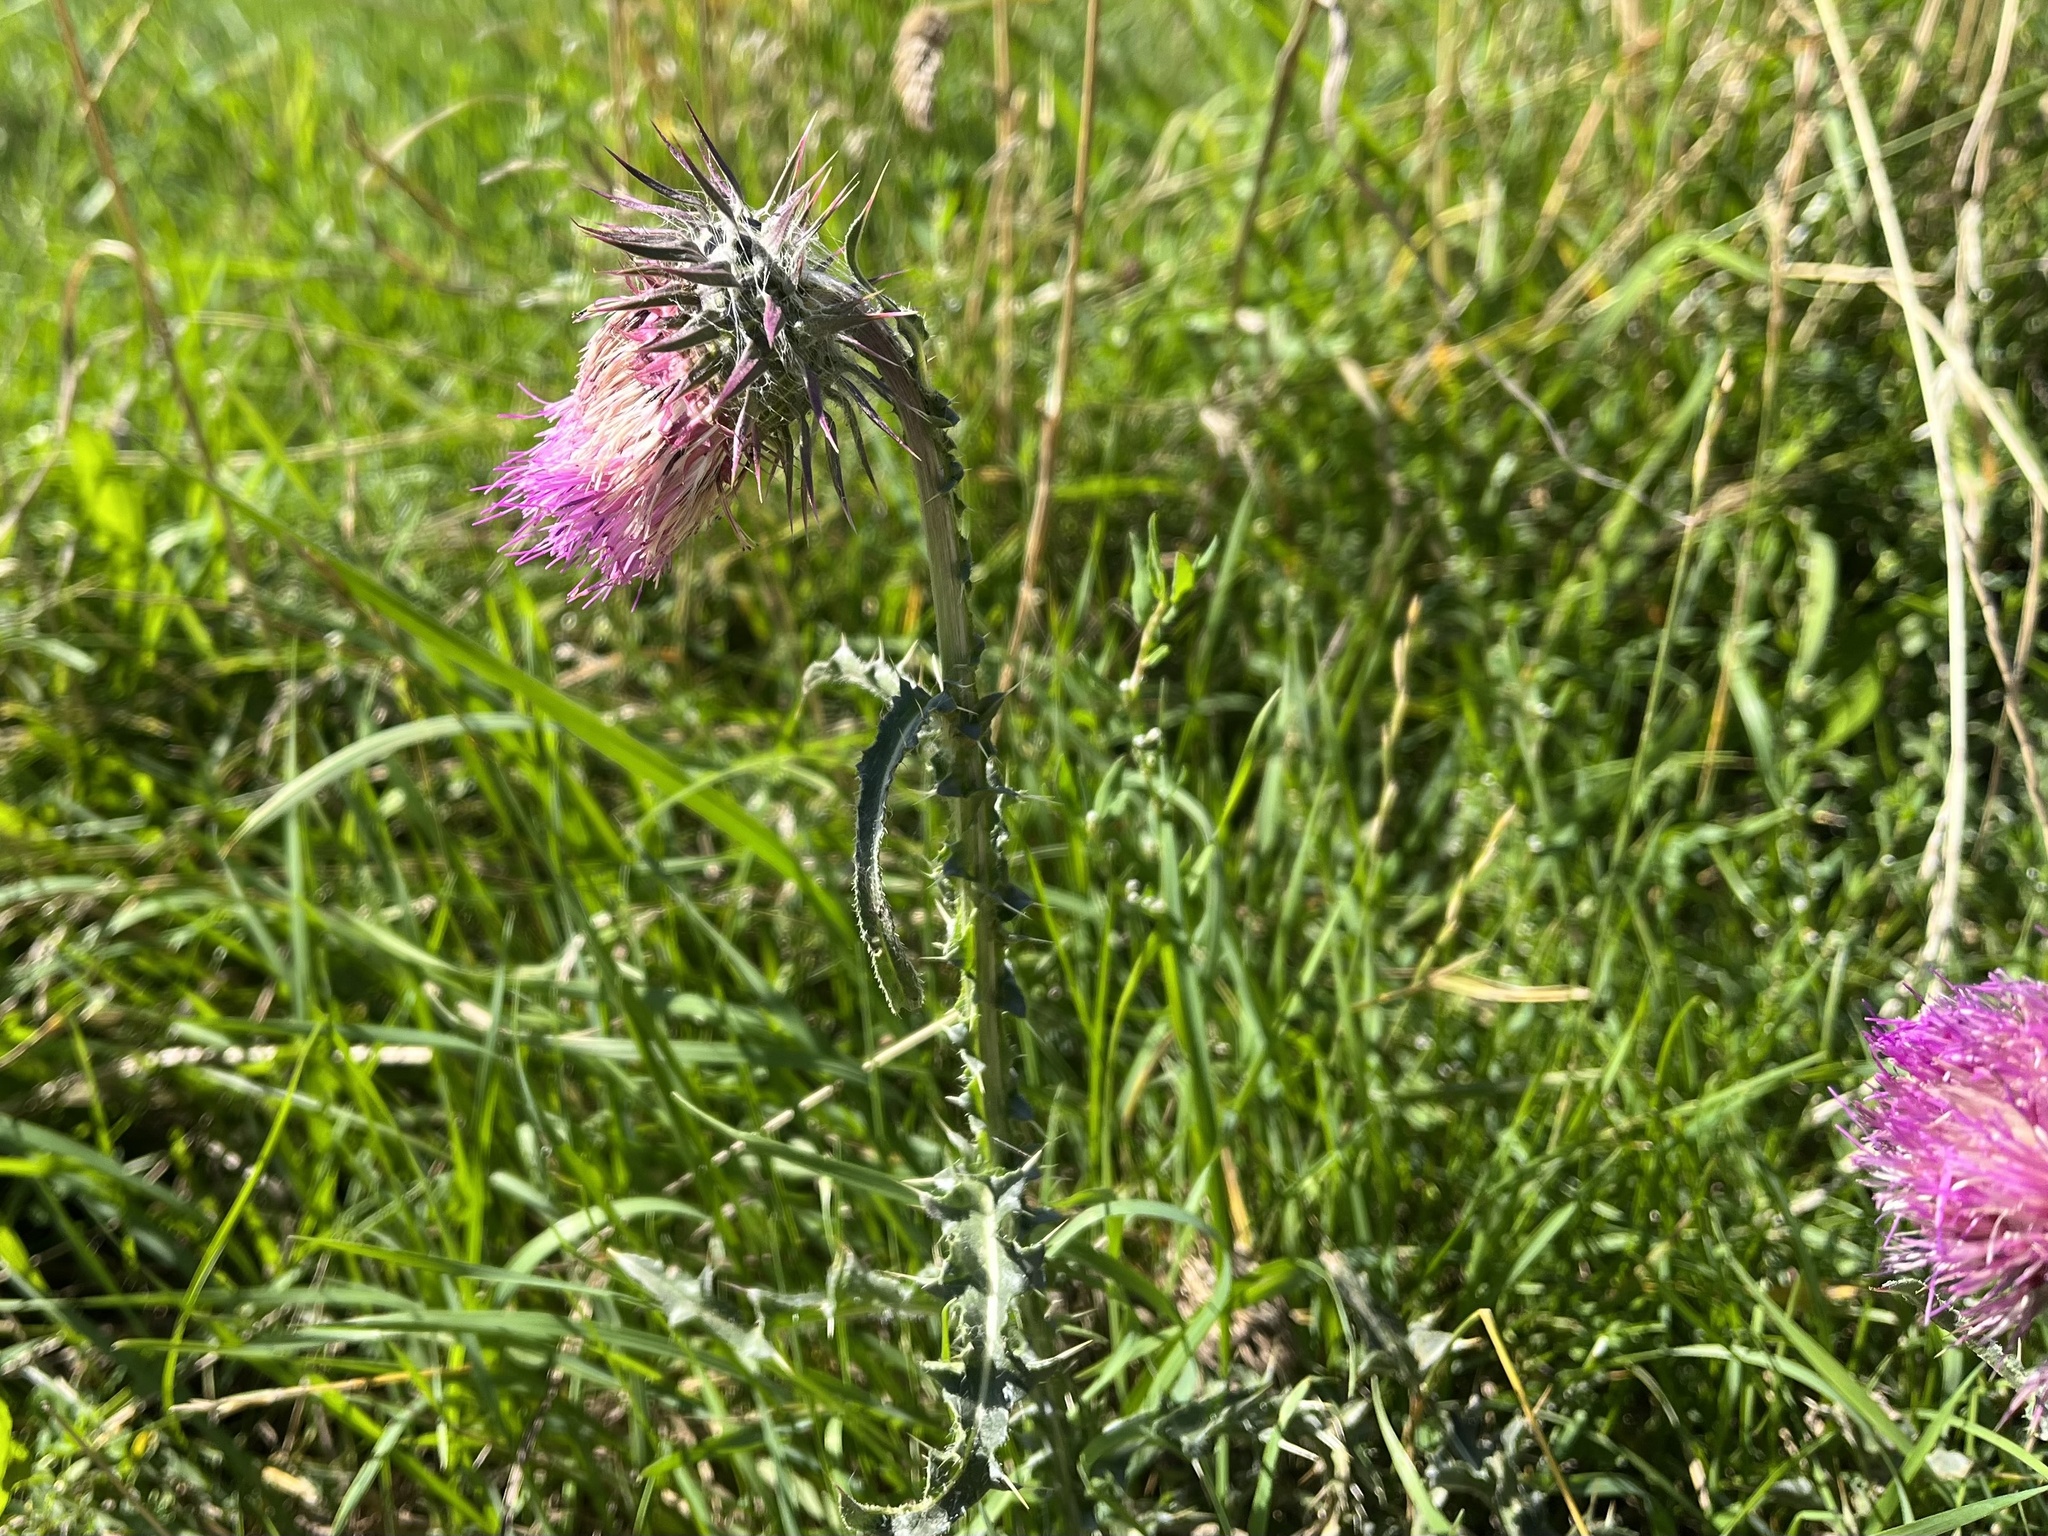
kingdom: Plantae
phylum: Tracheophyta
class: Magnoliopsida
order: Asterales
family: Asteraceae
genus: Carduus
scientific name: Carduus nutans
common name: Musk thistle
